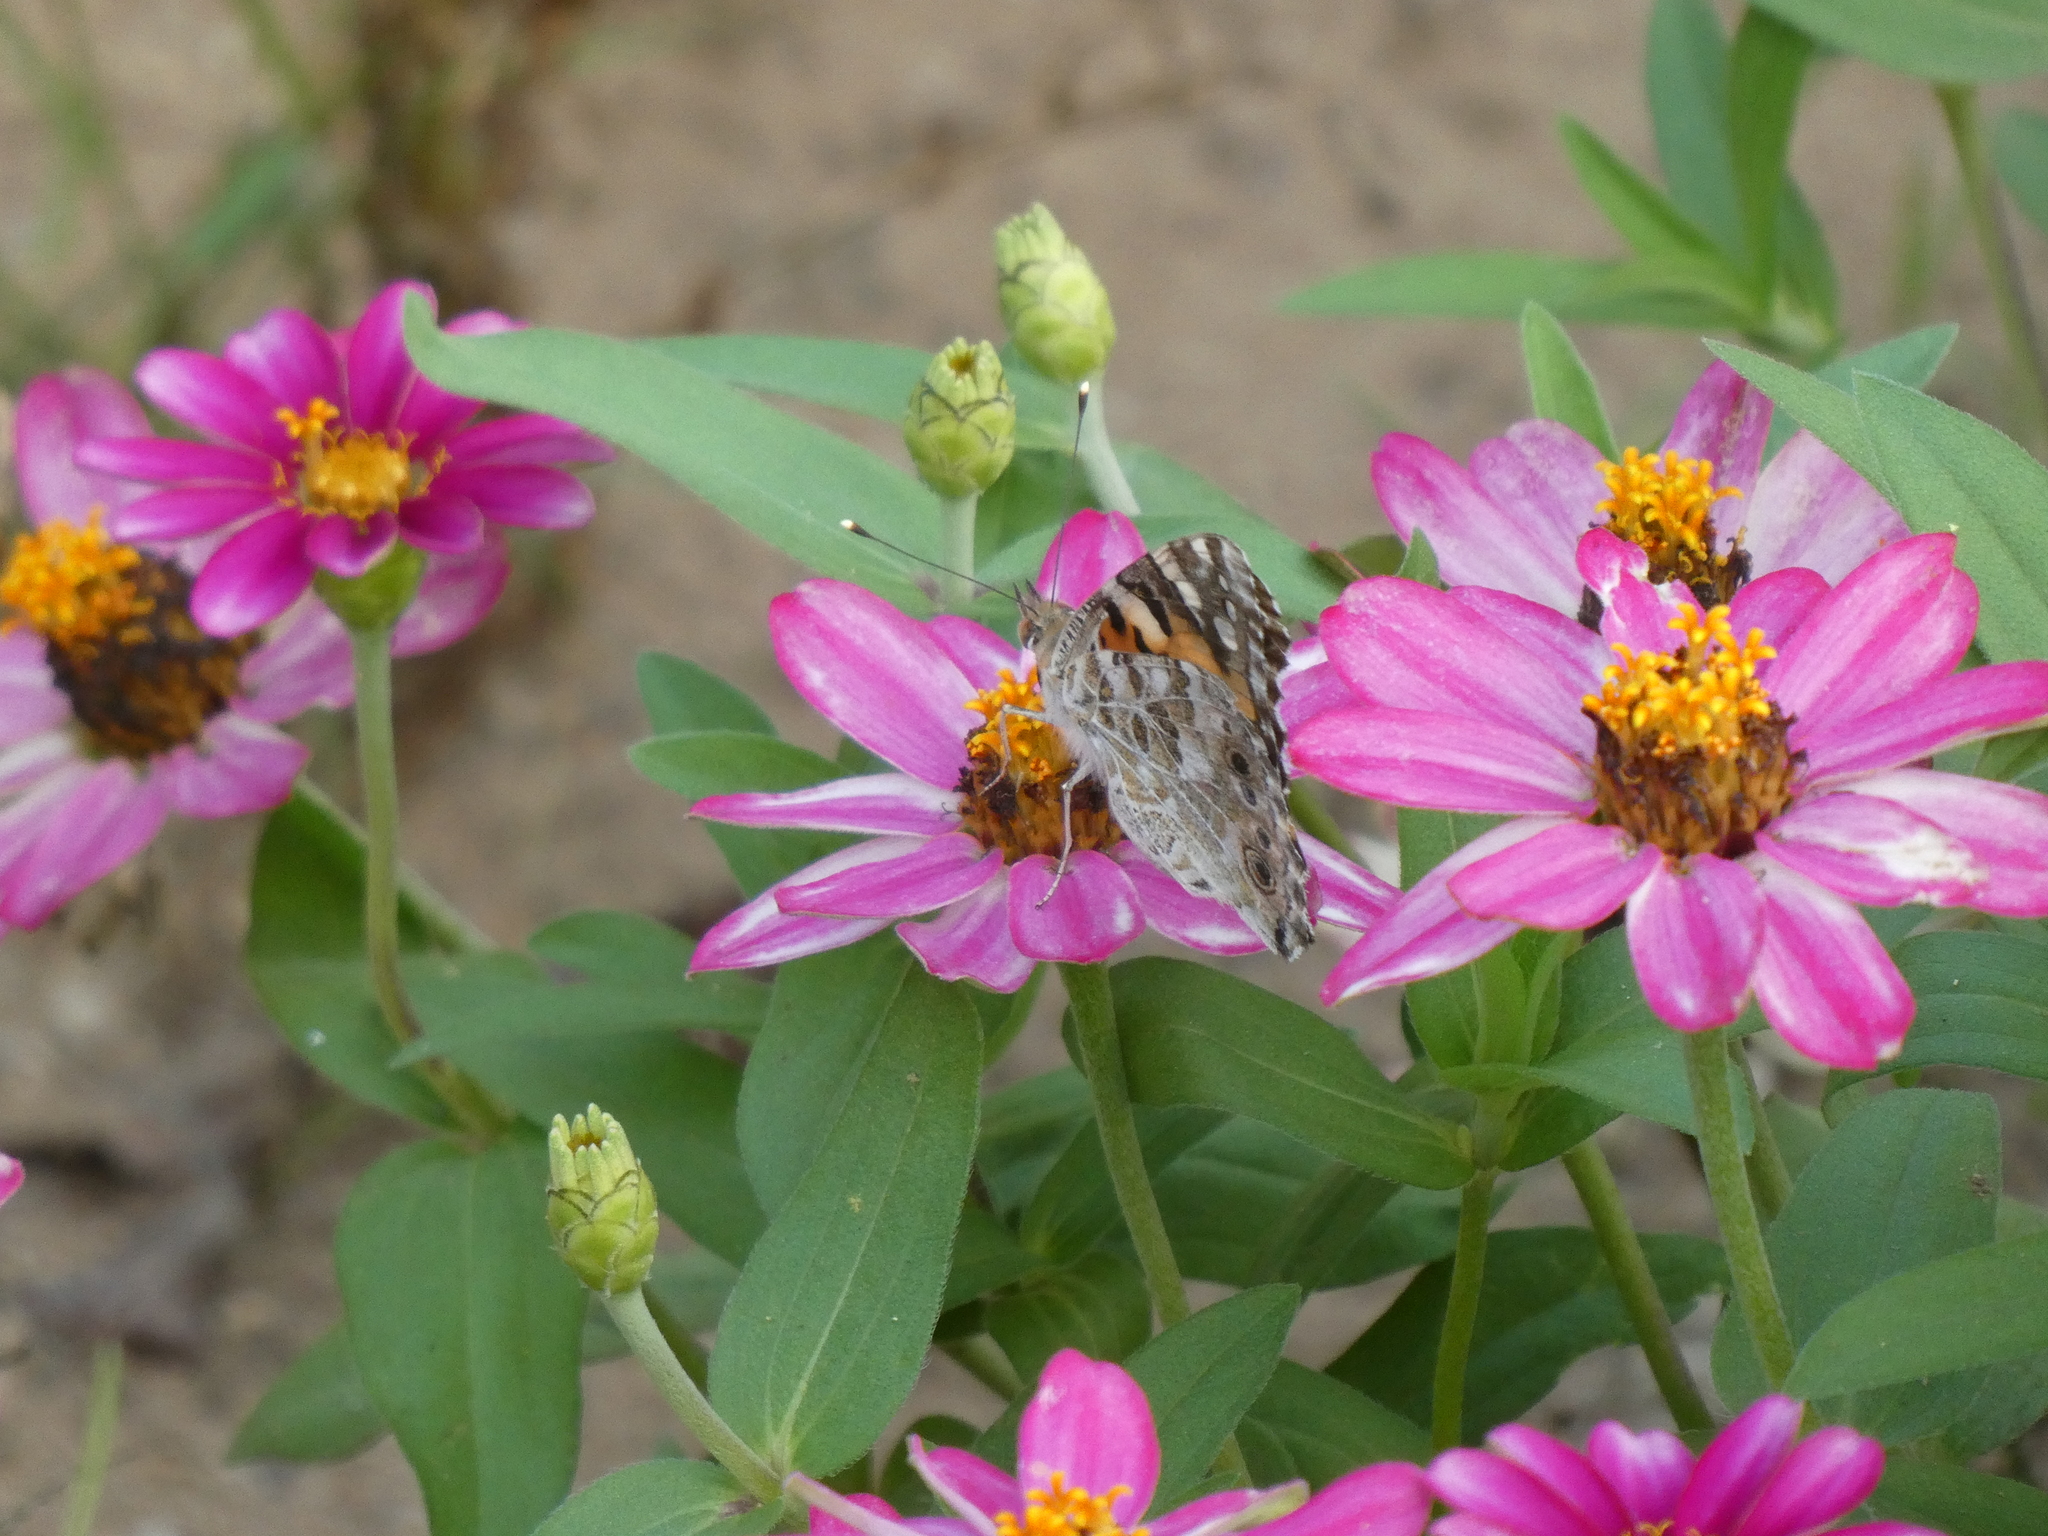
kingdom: Animalia
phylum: Arthropoda
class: Insecta
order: Lepidoptera
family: Nymphalidae
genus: Vanessa
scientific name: Vanessa cardui
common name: Painted lady
